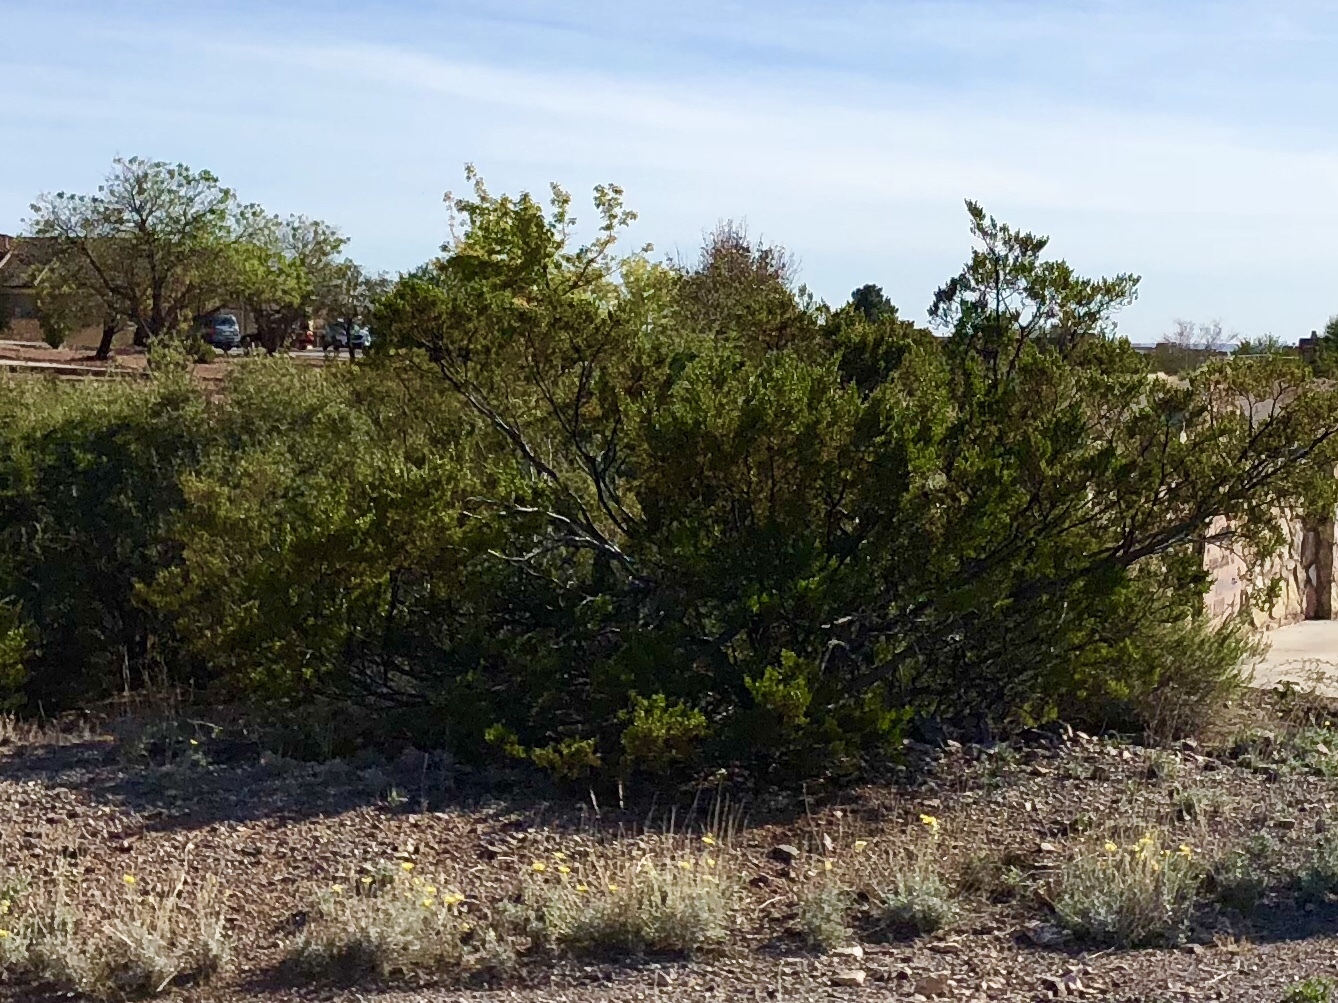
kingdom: Plantae
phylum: Tracheophyta
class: Magnoliopsida
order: Zygophyllales
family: Zygophyllaceae
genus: Larrea
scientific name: Larrea tridentata
